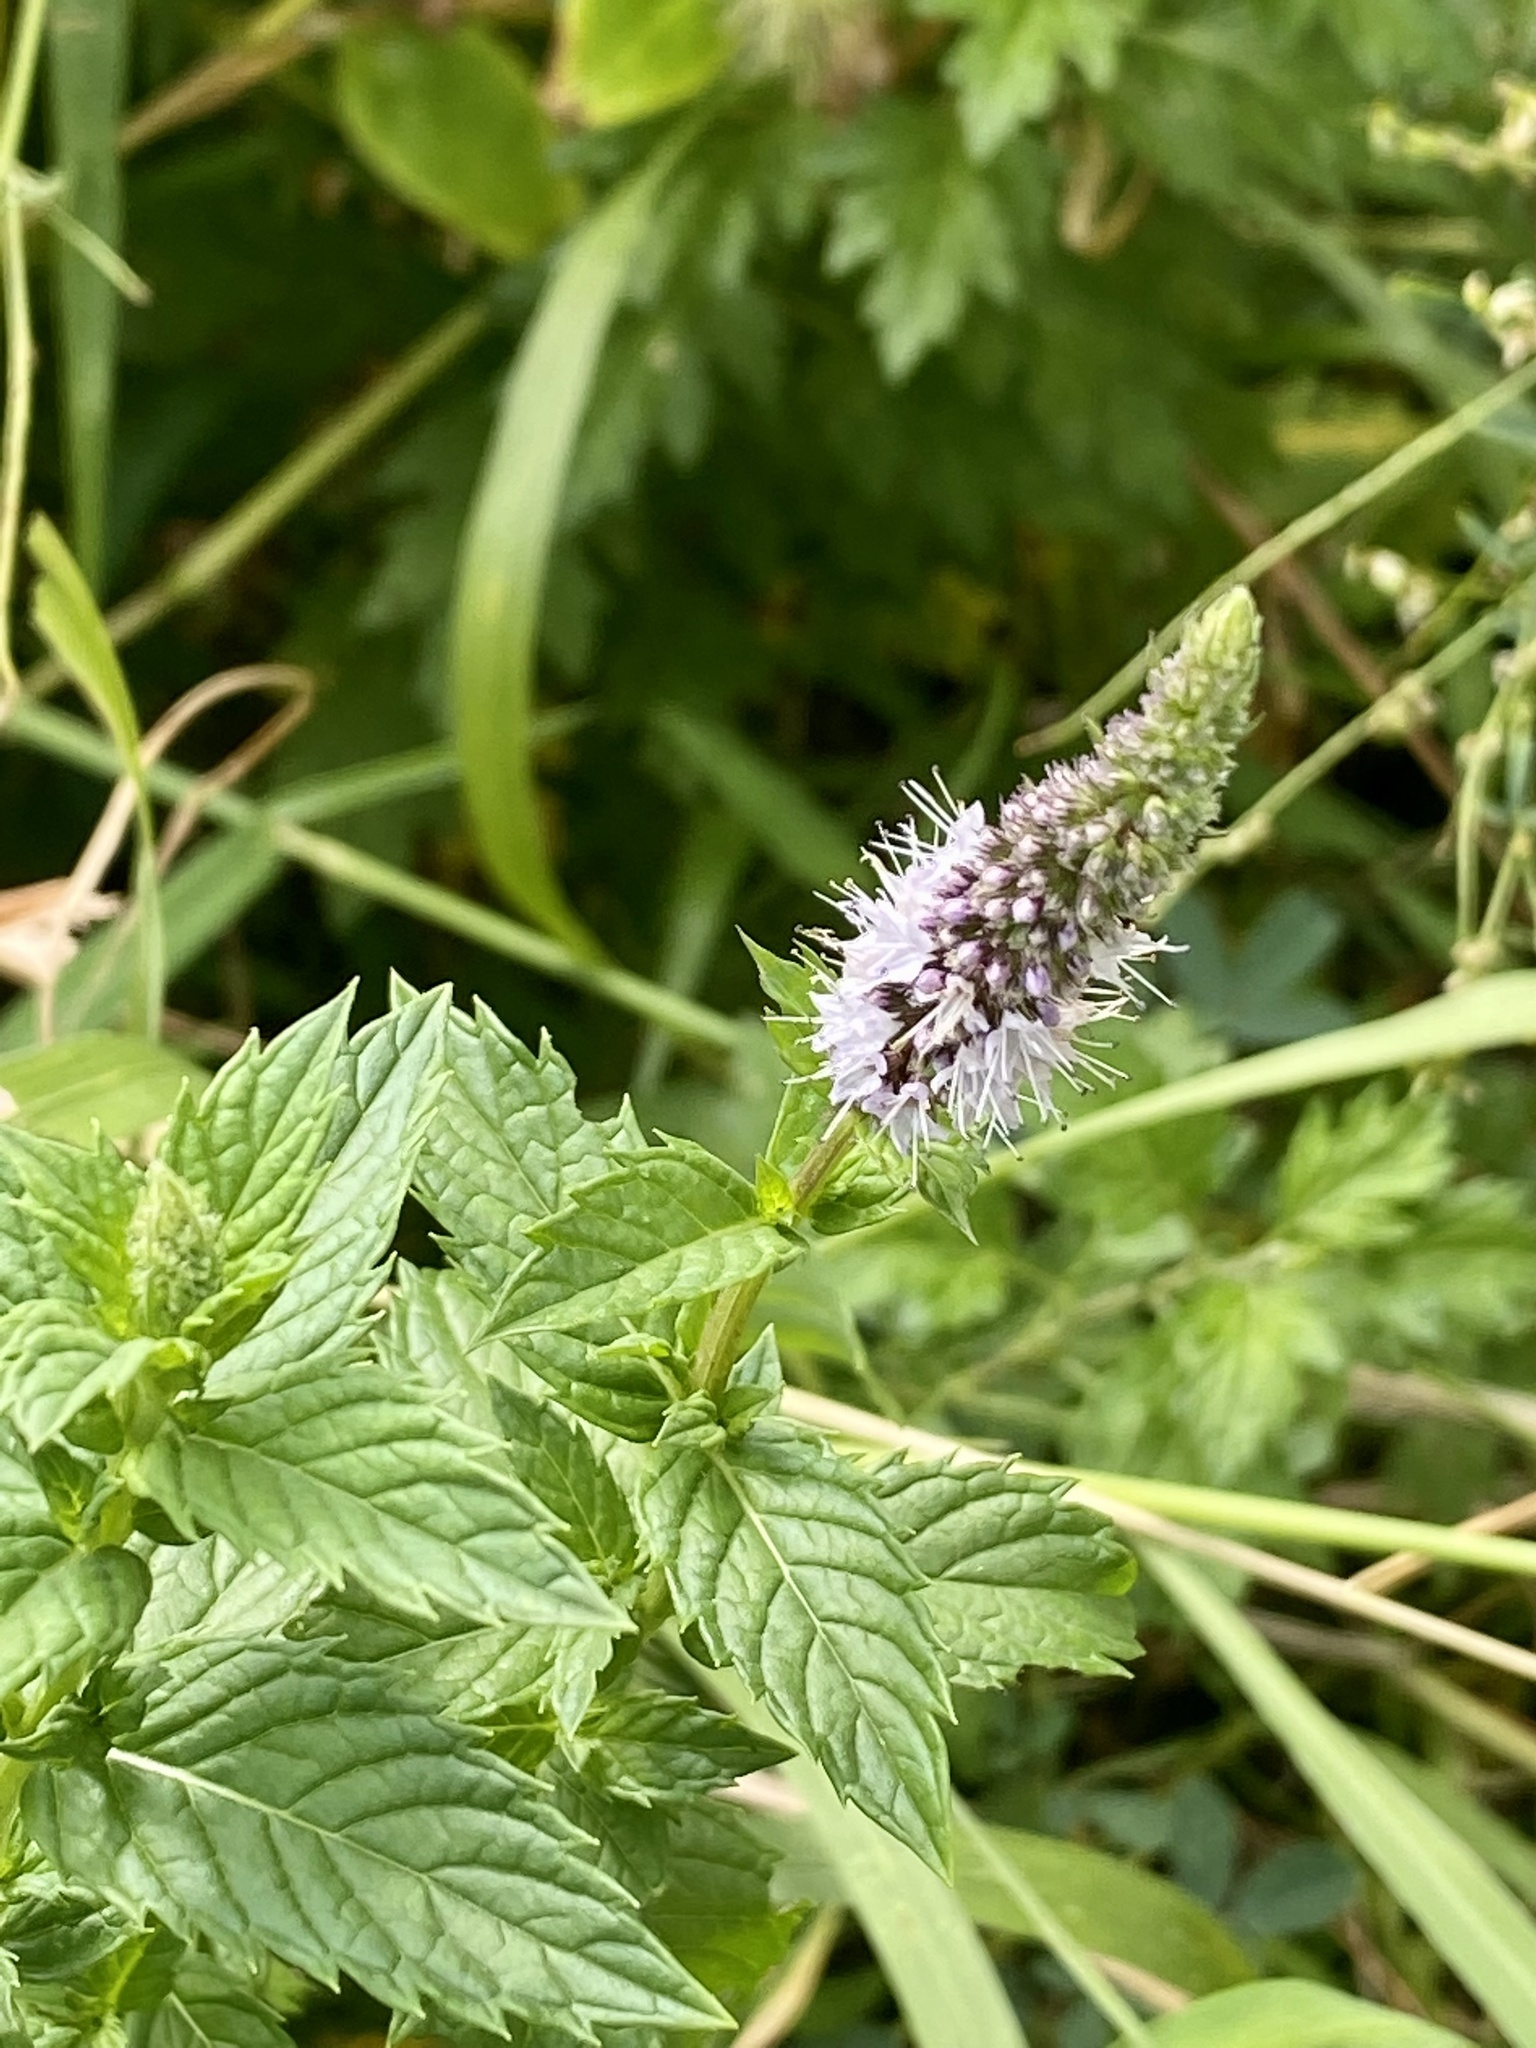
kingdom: Plantae
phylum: Tracheophyta
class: Magnoliopsida
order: Lamiales
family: Lamiaceae
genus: Mentha
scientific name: Mentha spicata
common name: Spearmint
